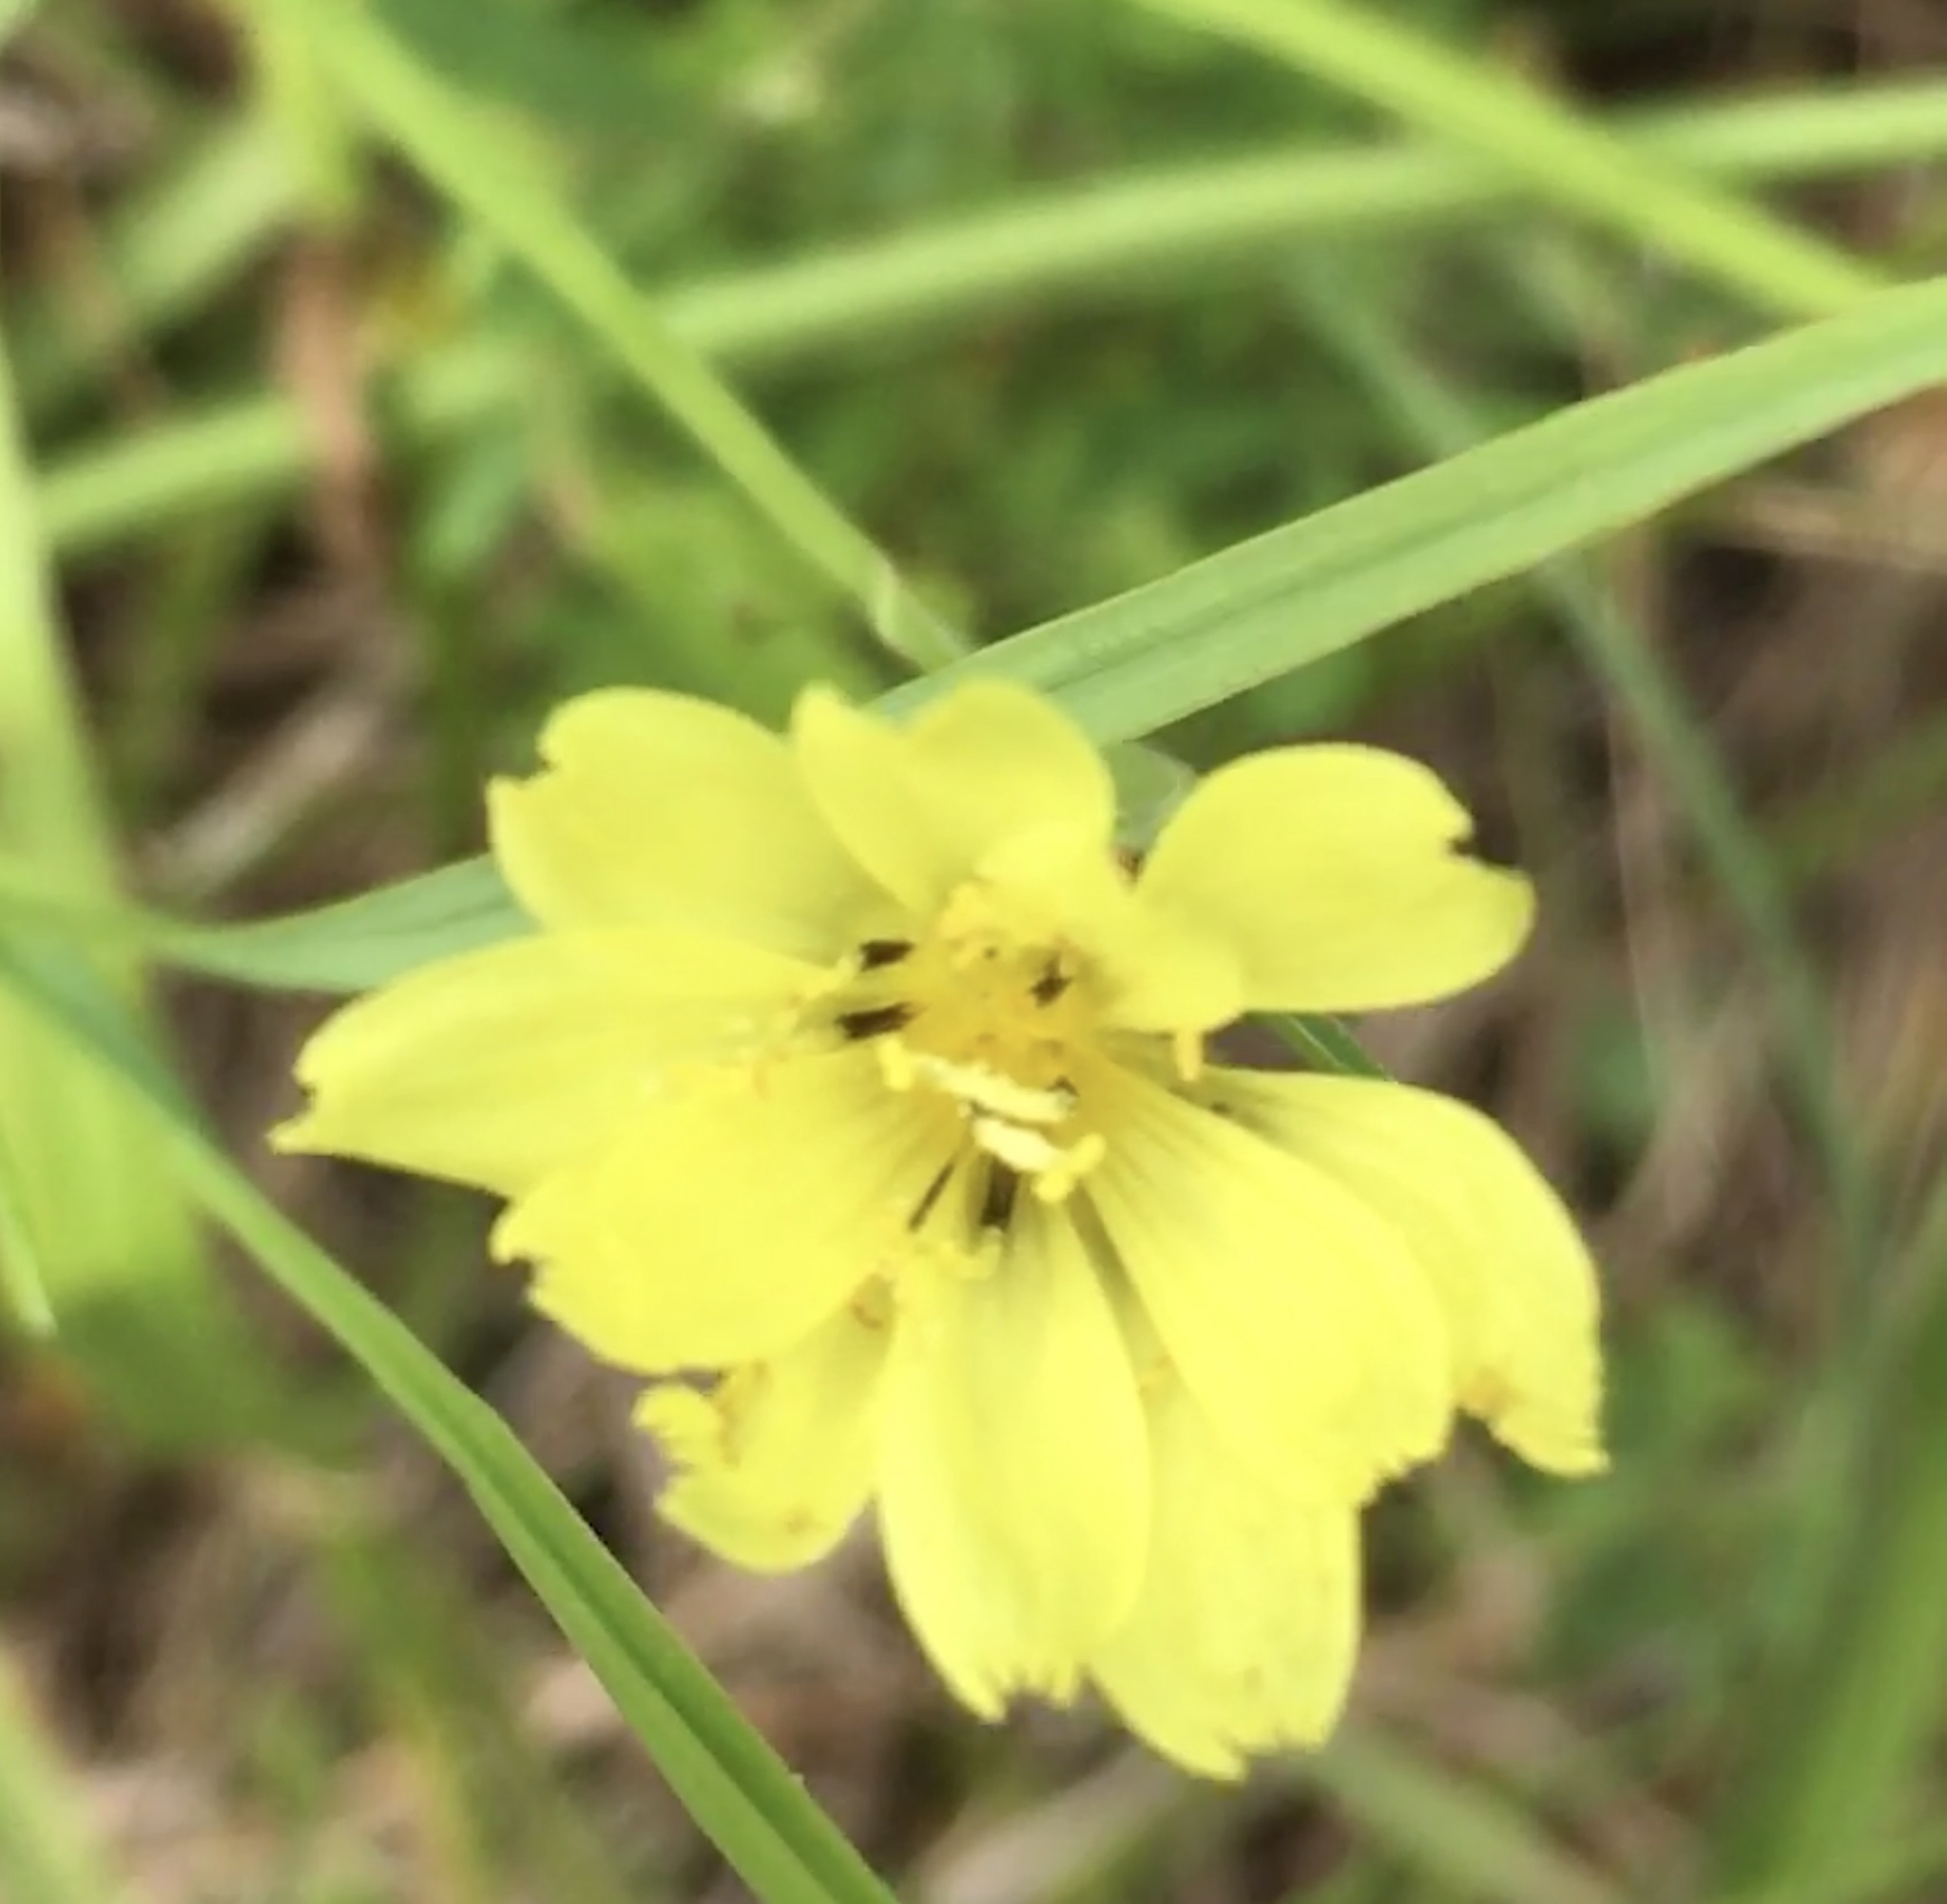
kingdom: Plantae
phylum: Tracheophyta
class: Magnoliopsida
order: Asterales
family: Asteraceae
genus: Pyrrhopappus
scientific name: Pyrrhopappus carolinianus
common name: Carolina desert-chicory
